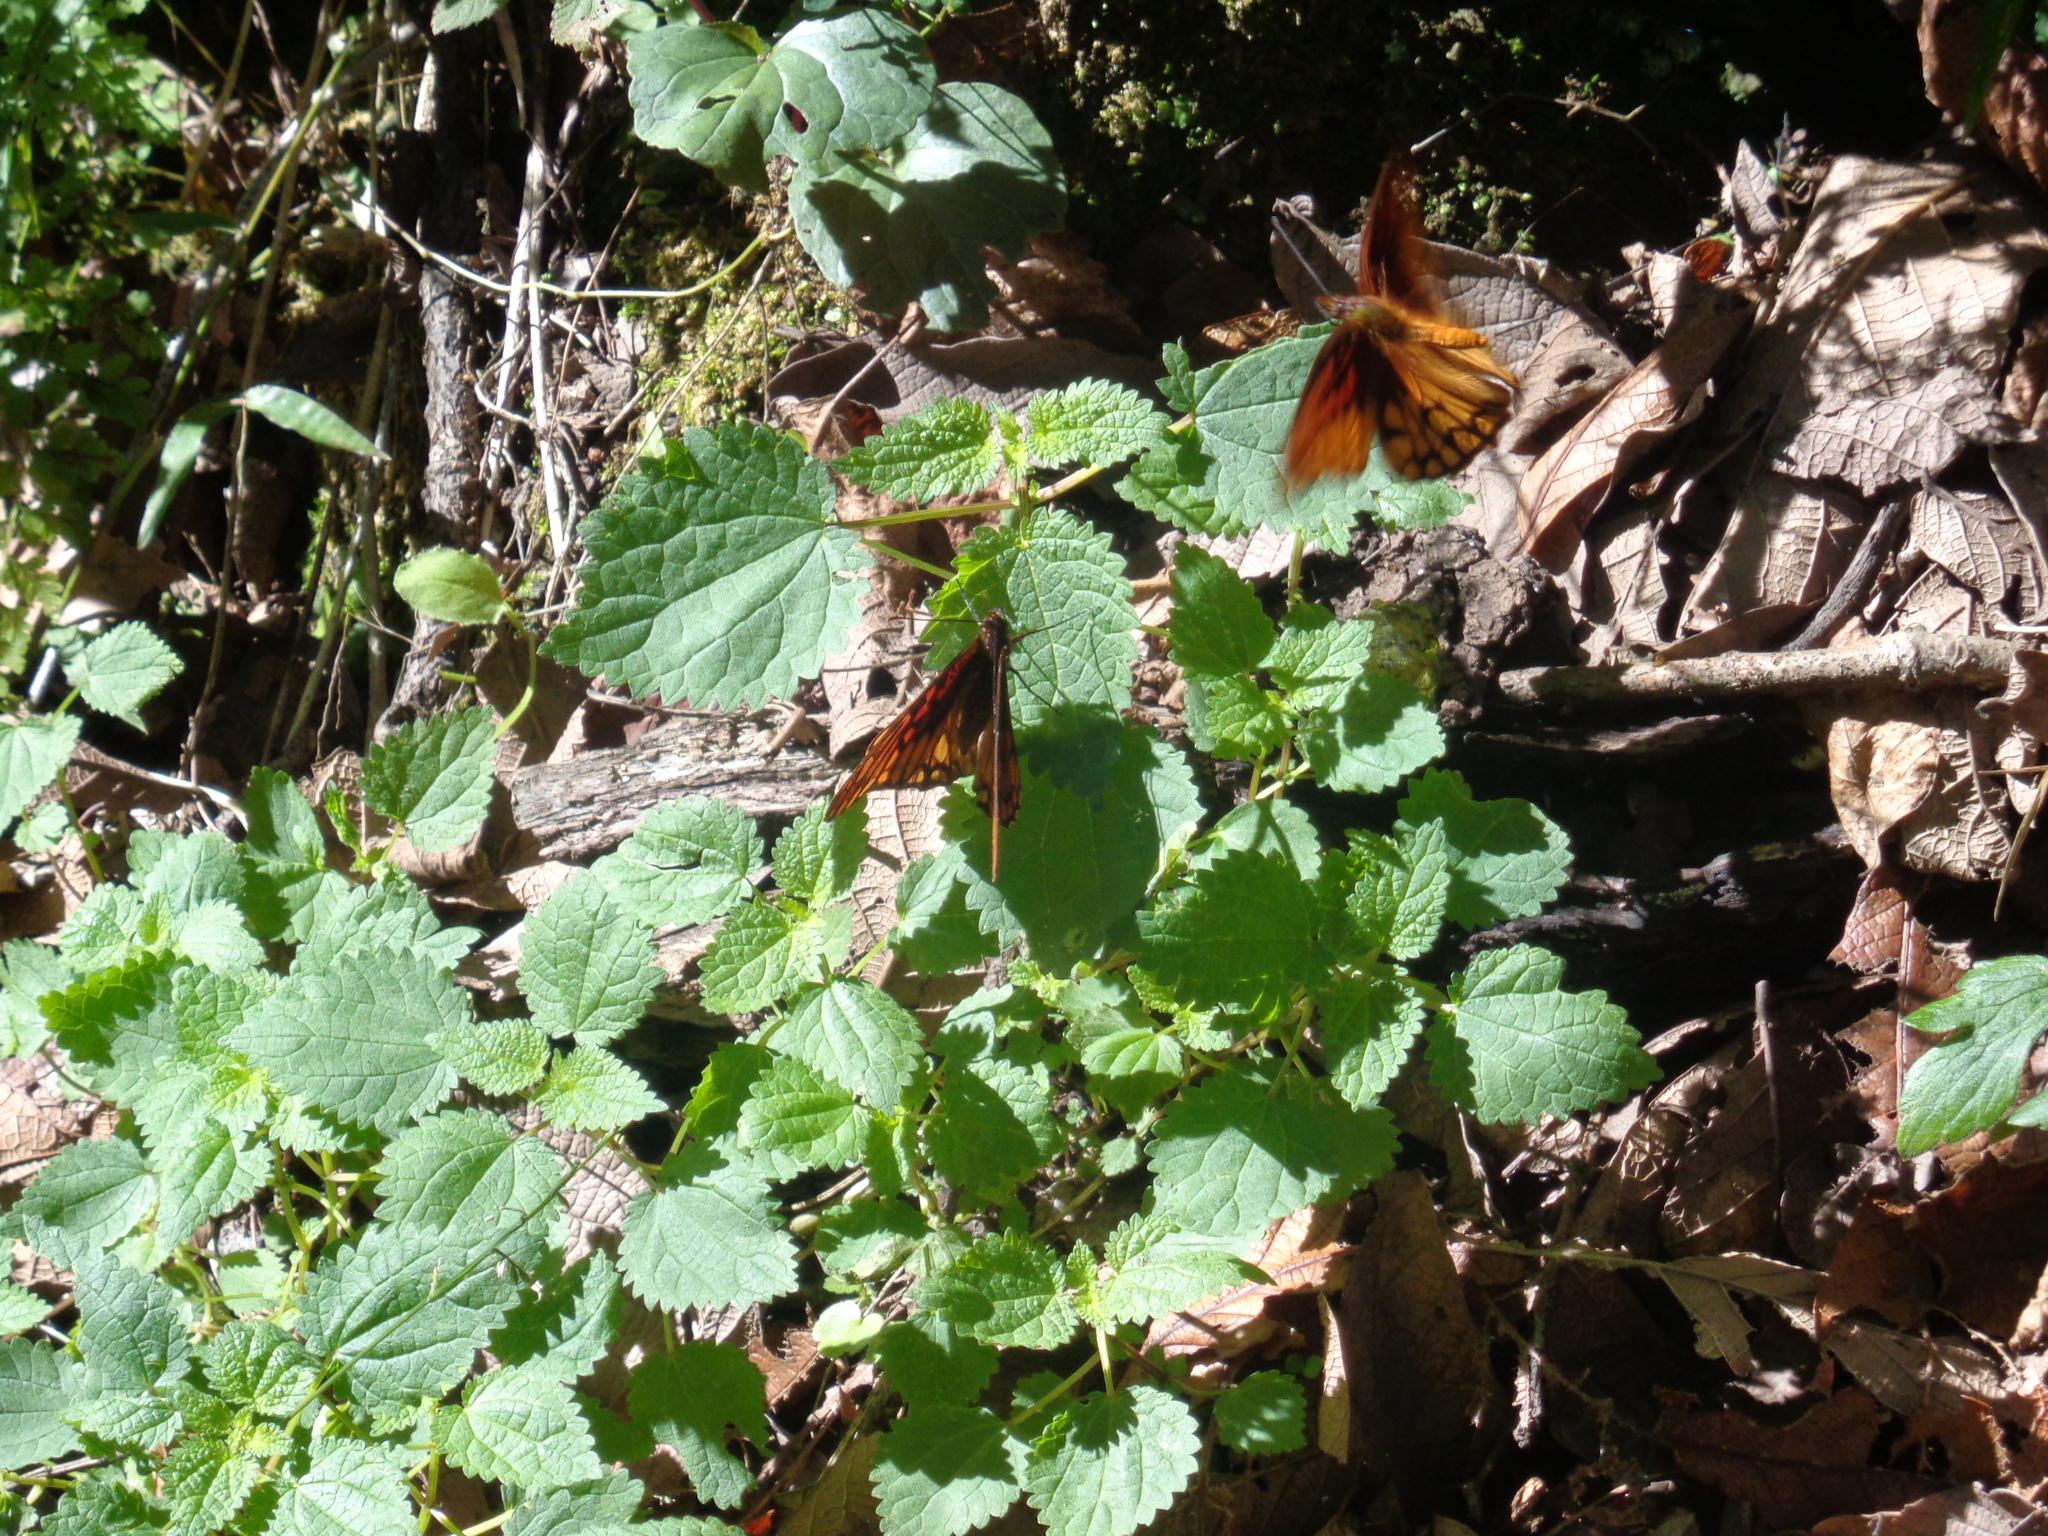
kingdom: Animalia
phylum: Arthropoda
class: Insecta
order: Lepidoptera
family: Nymphalidae
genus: Dione
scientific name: Dione moneta
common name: Mexican silverspot
